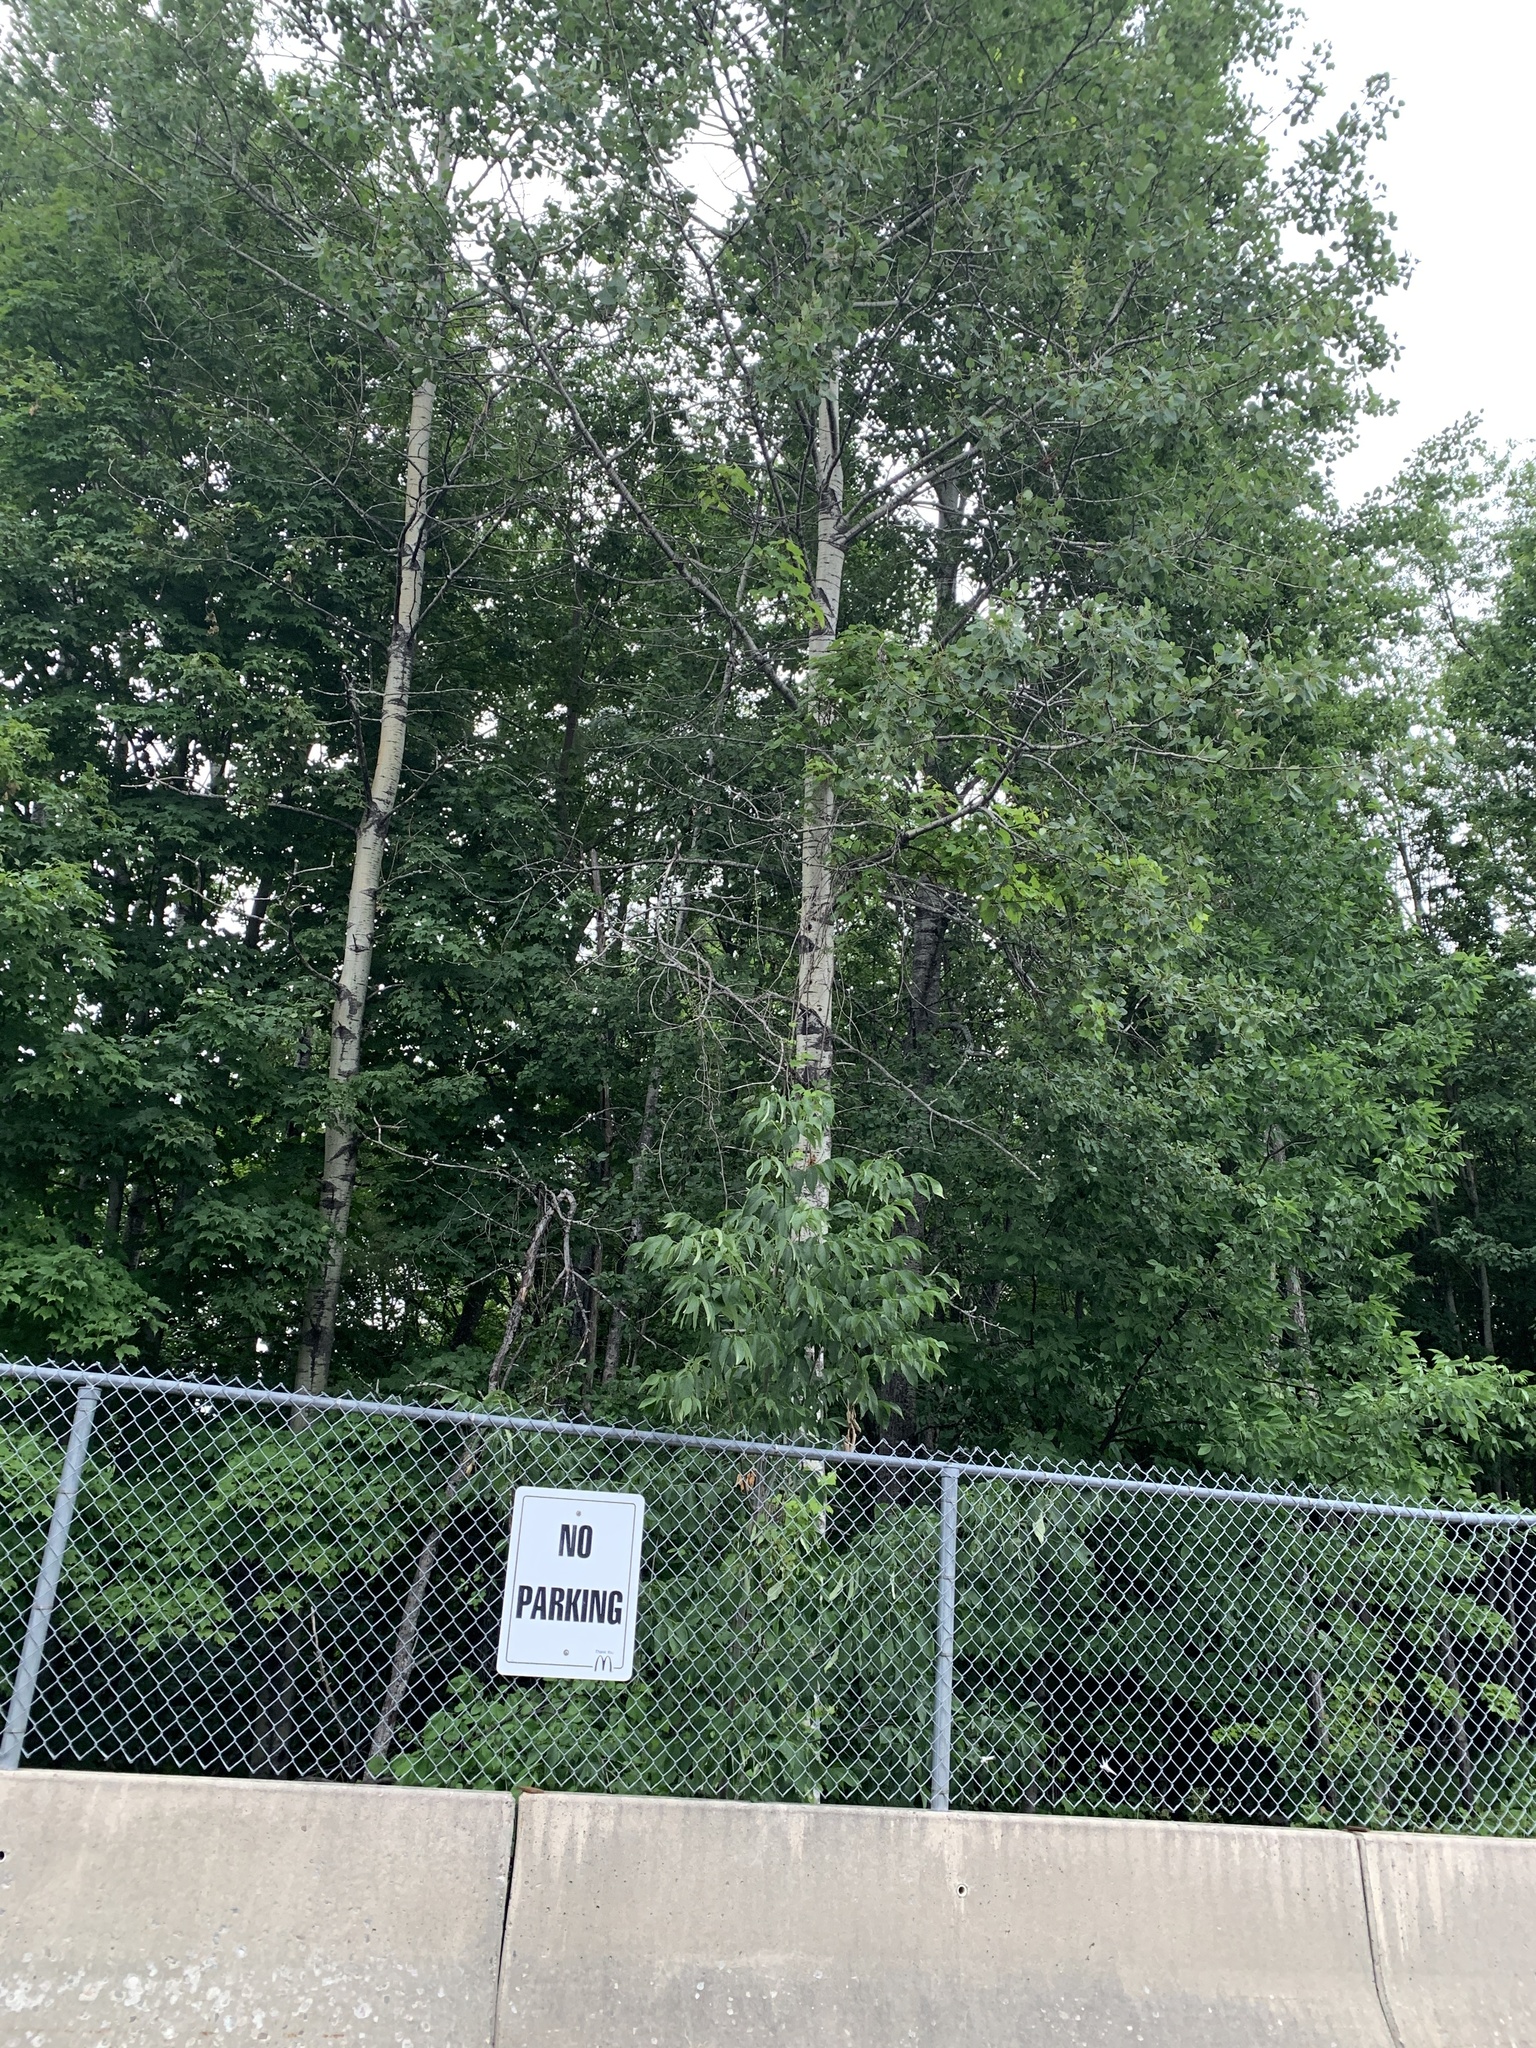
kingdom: Plantae
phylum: Tracheophyta
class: Magnoliopsida
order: Malpighiales
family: Salicaceae
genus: Populus
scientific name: Populus tremuloides
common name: Quaking aspen
